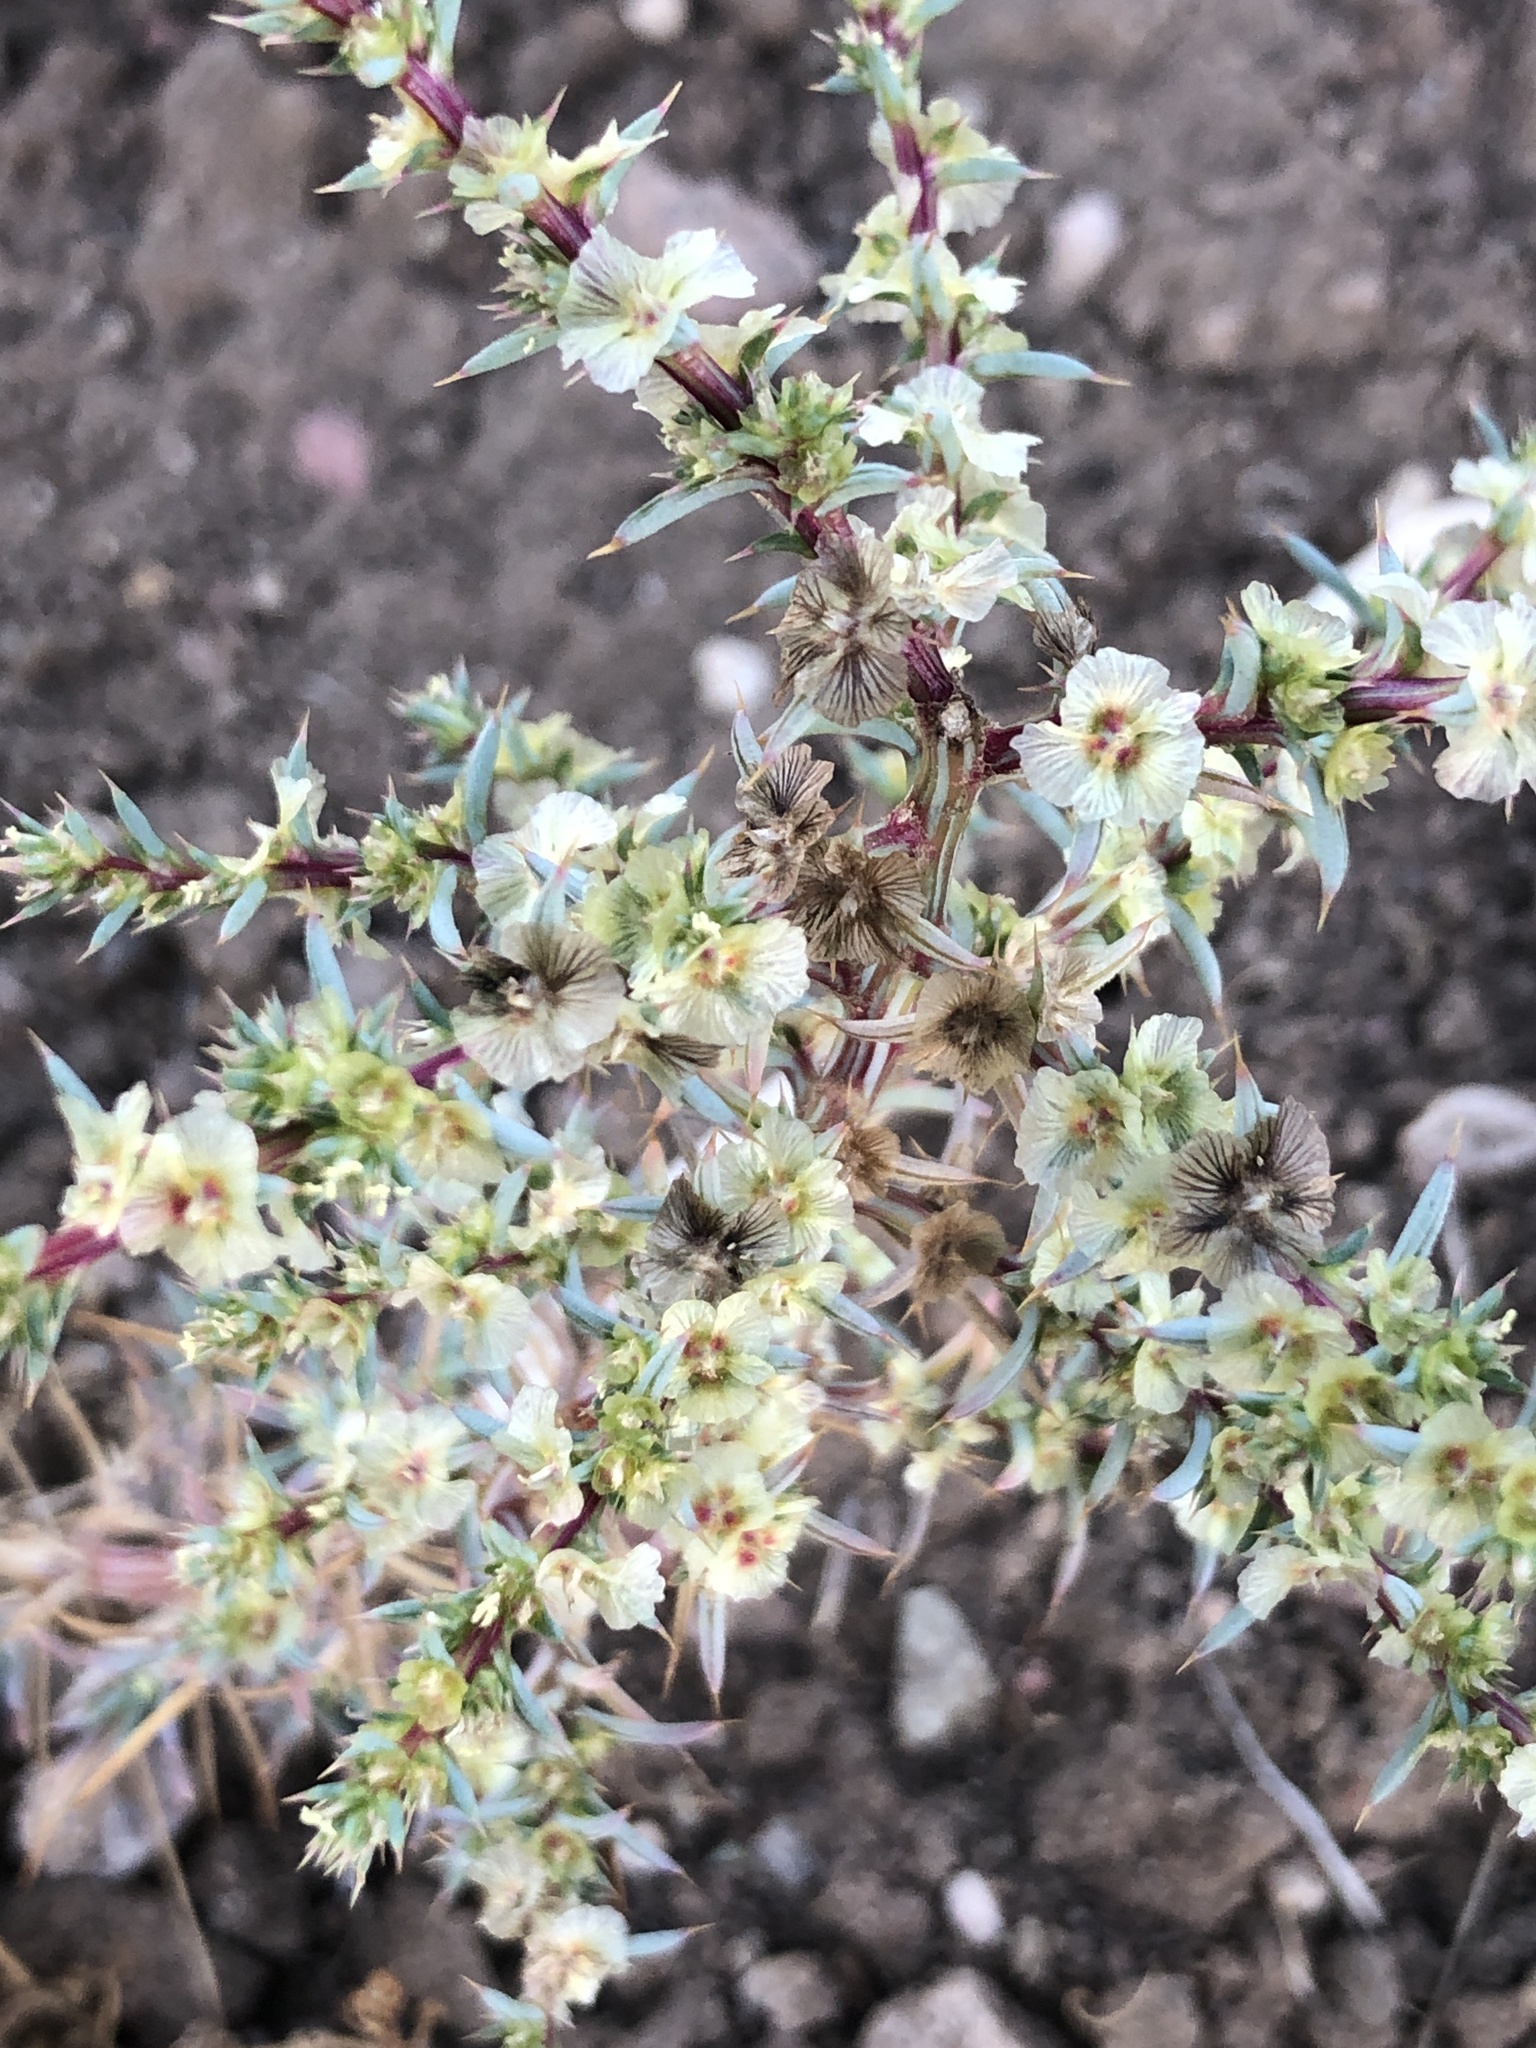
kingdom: Plantae
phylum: Tracheophyta
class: Magnoliopsida
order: Caryophyllales
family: Amaranthaceae
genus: Salsola
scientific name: Salsola australis
